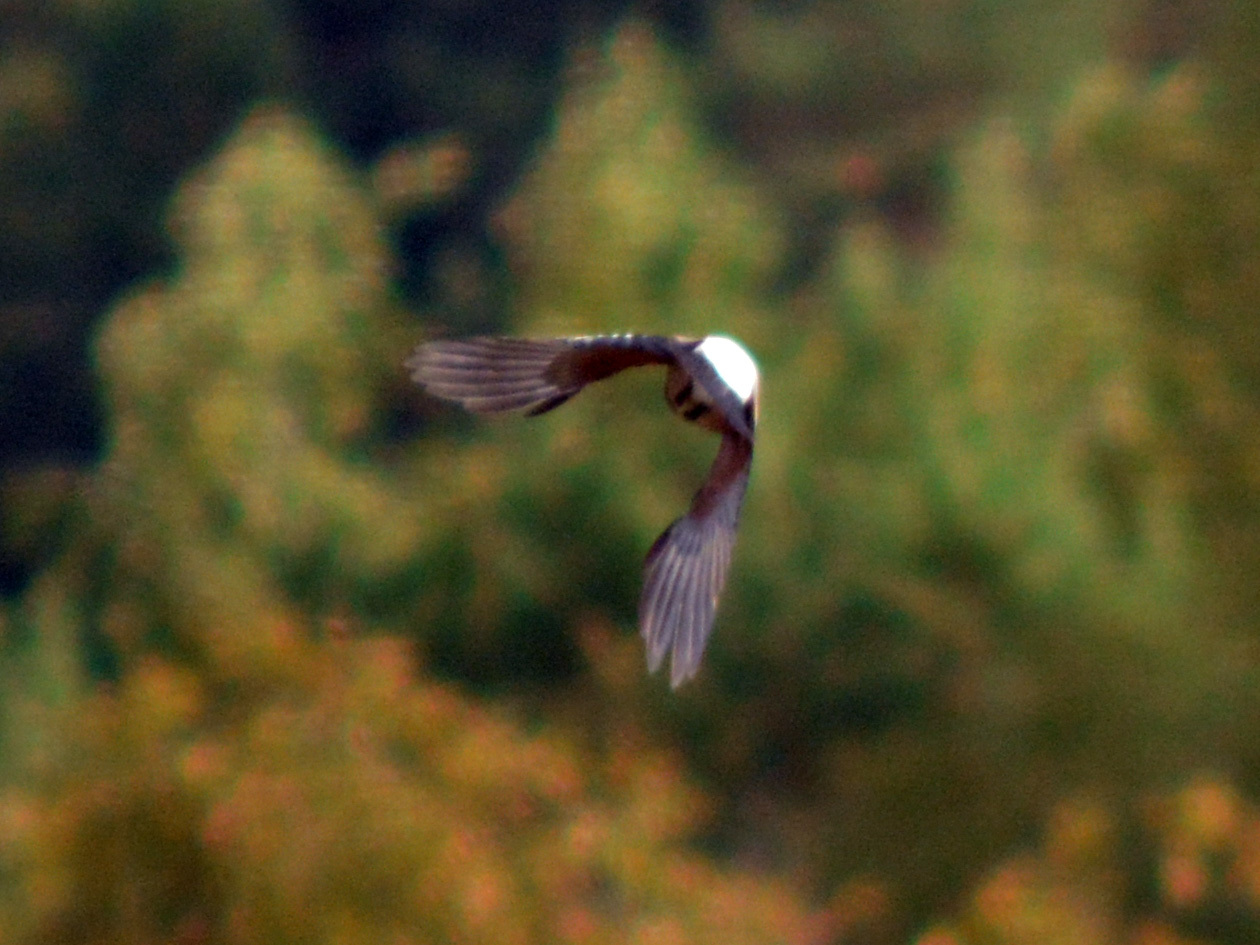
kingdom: Animalia
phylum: Chordata
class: Aves
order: Passeriformes
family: Corvidae
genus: Garrulus
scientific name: Garrulus glandarius
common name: Eurasian jay
